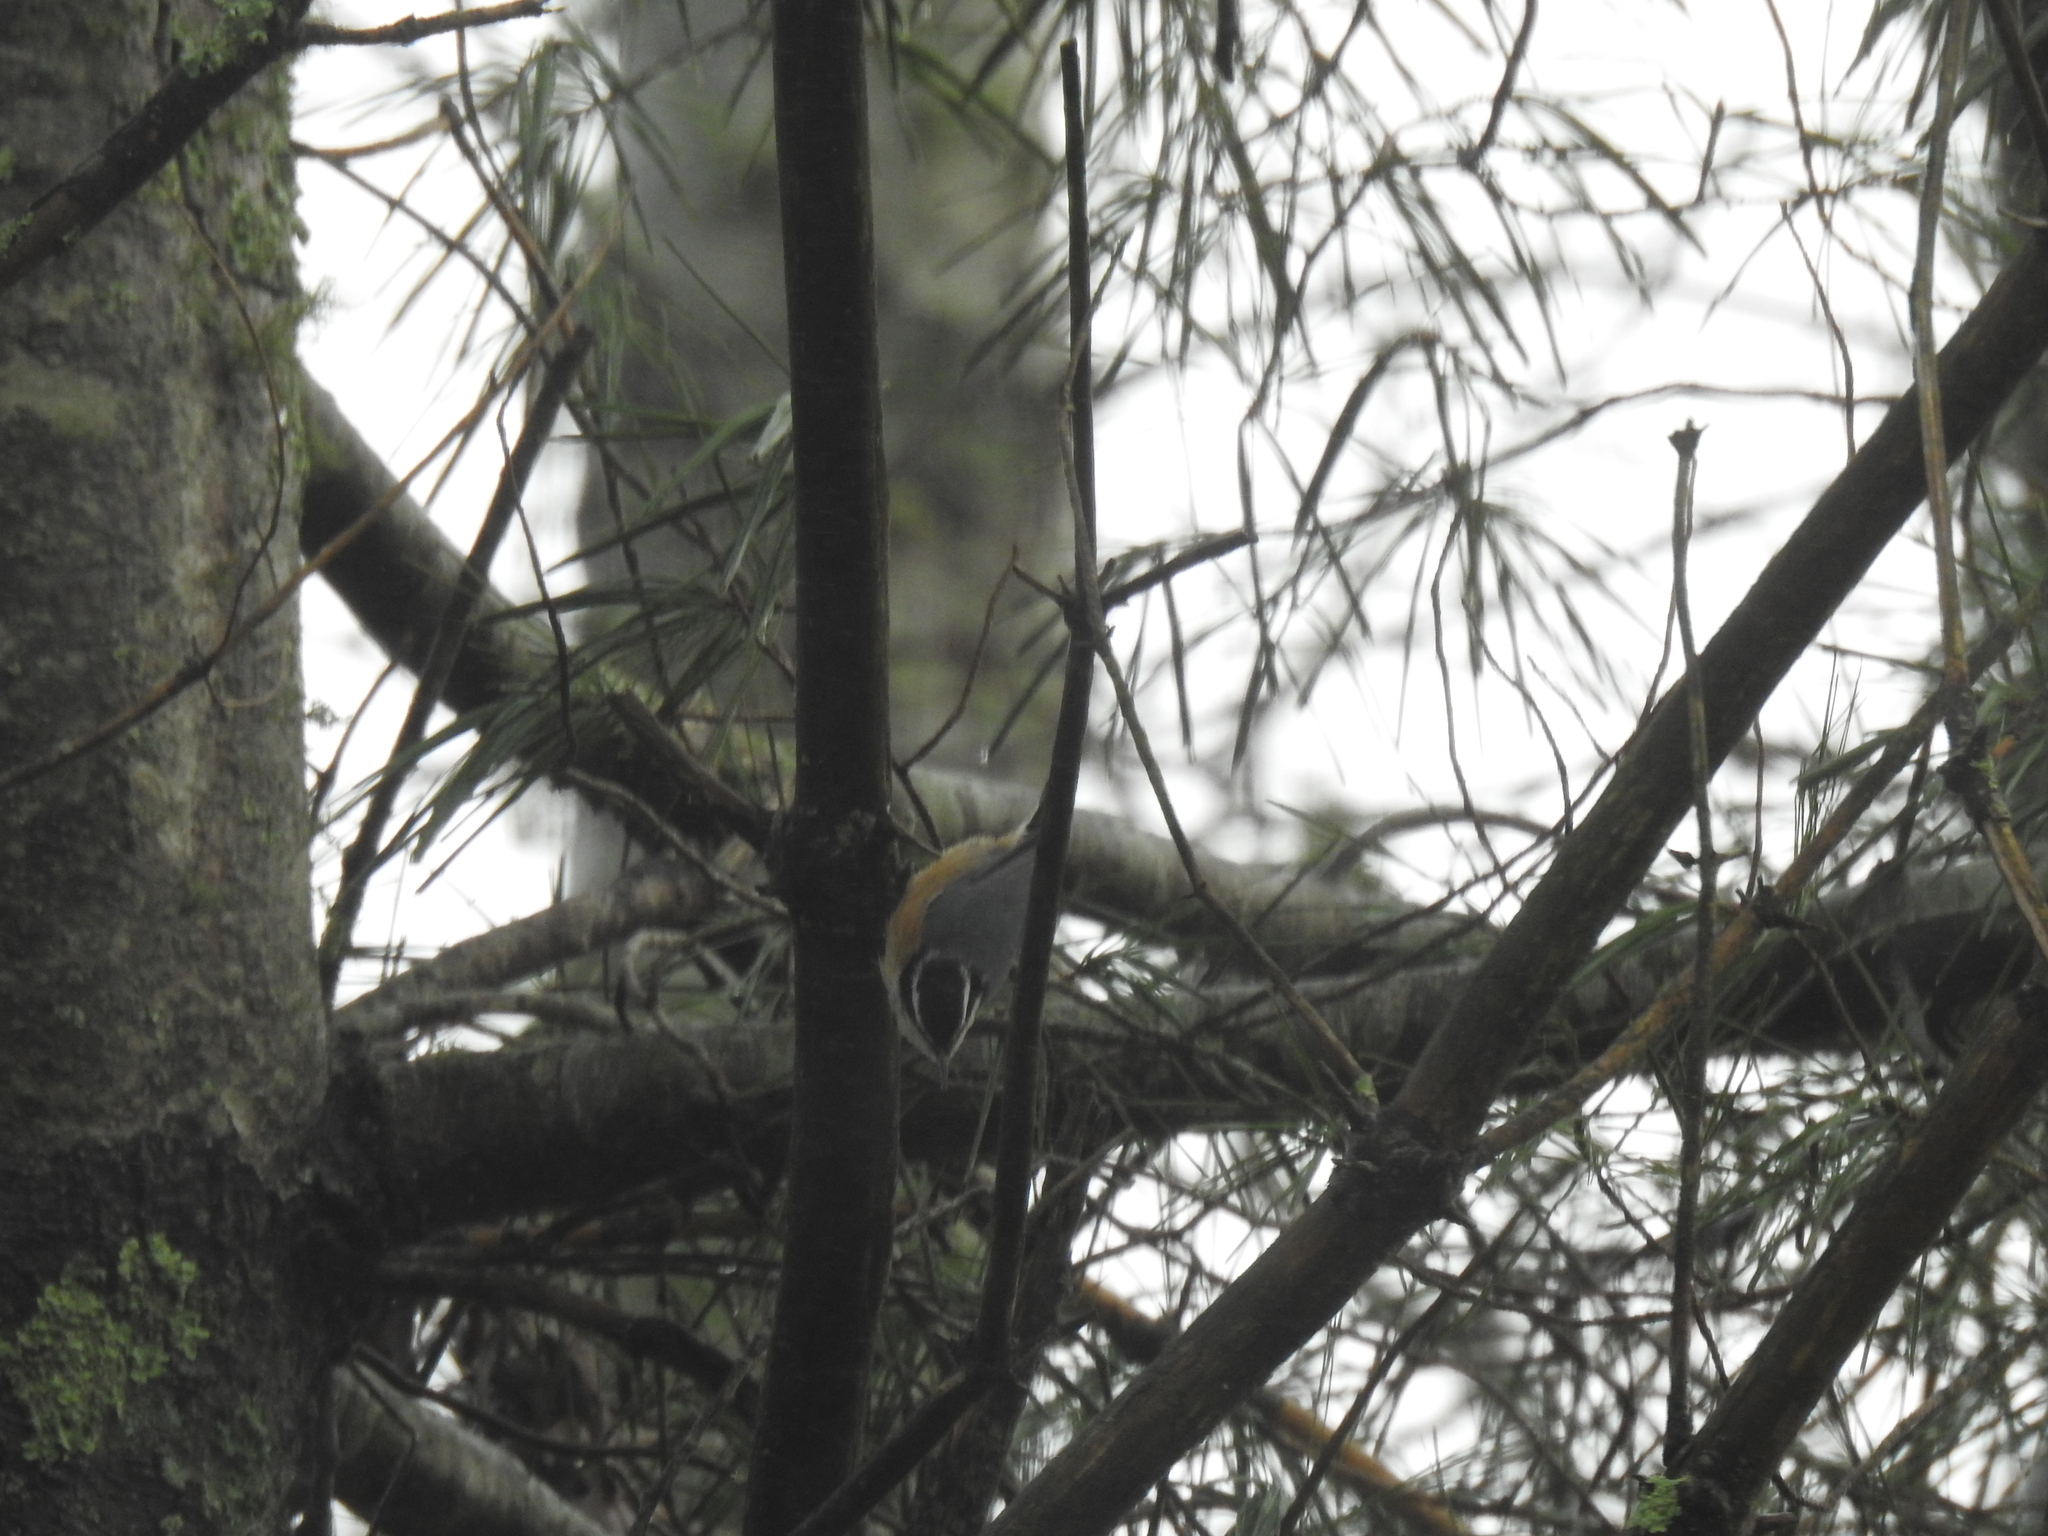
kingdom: Animalia
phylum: Chordata
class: Aves
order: Passeriformes
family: Sittidae
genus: Sitta
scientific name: Sitta canadensis
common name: Red-breasted nuthatch
